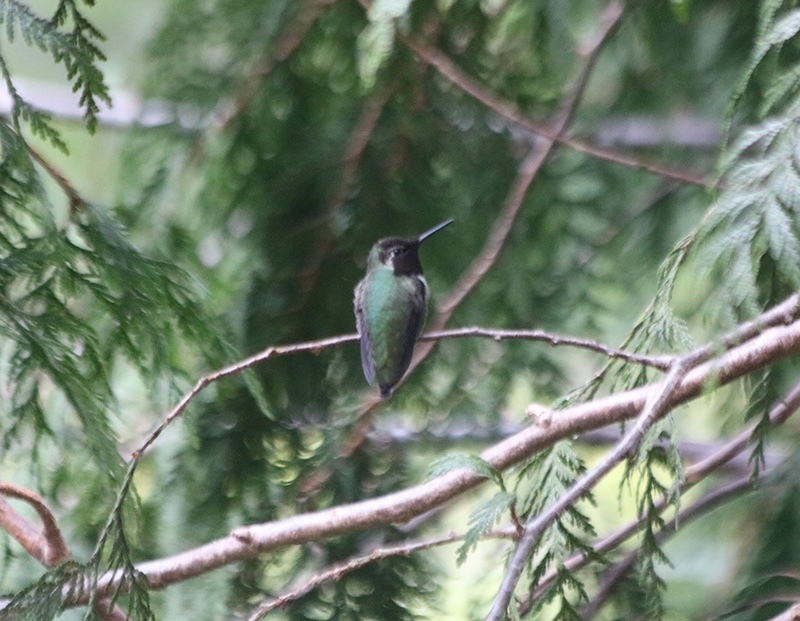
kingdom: Animalia
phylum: Chordata
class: Aves
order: Apodiformes
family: Trochilidae
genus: Calypte
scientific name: Calypte anna
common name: Anna's hummingbird
